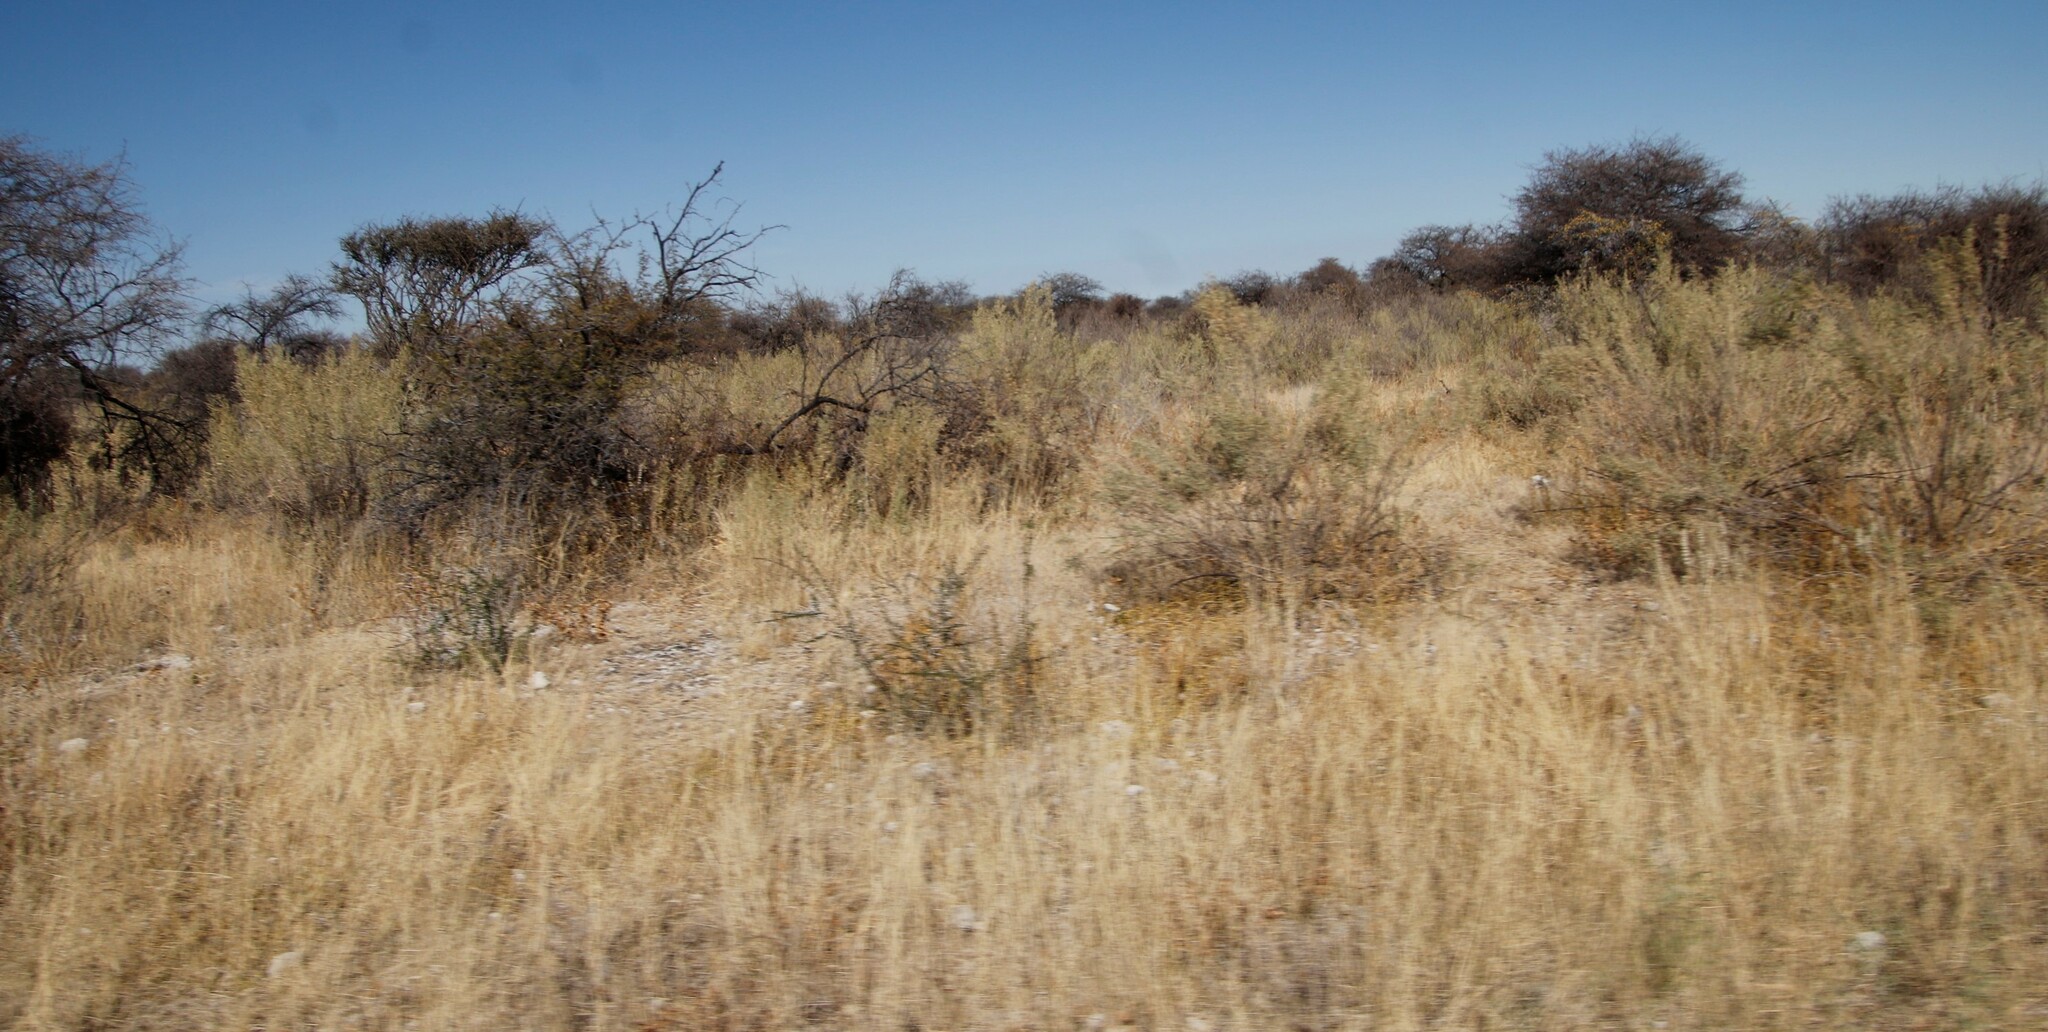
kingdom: Plantae
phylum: Tracheophyta
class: Magnoliopsida
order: Asterales
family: Asteraceae
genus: Pechuel-loeschea
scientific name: Pechuel-loeschea leubnitziae
